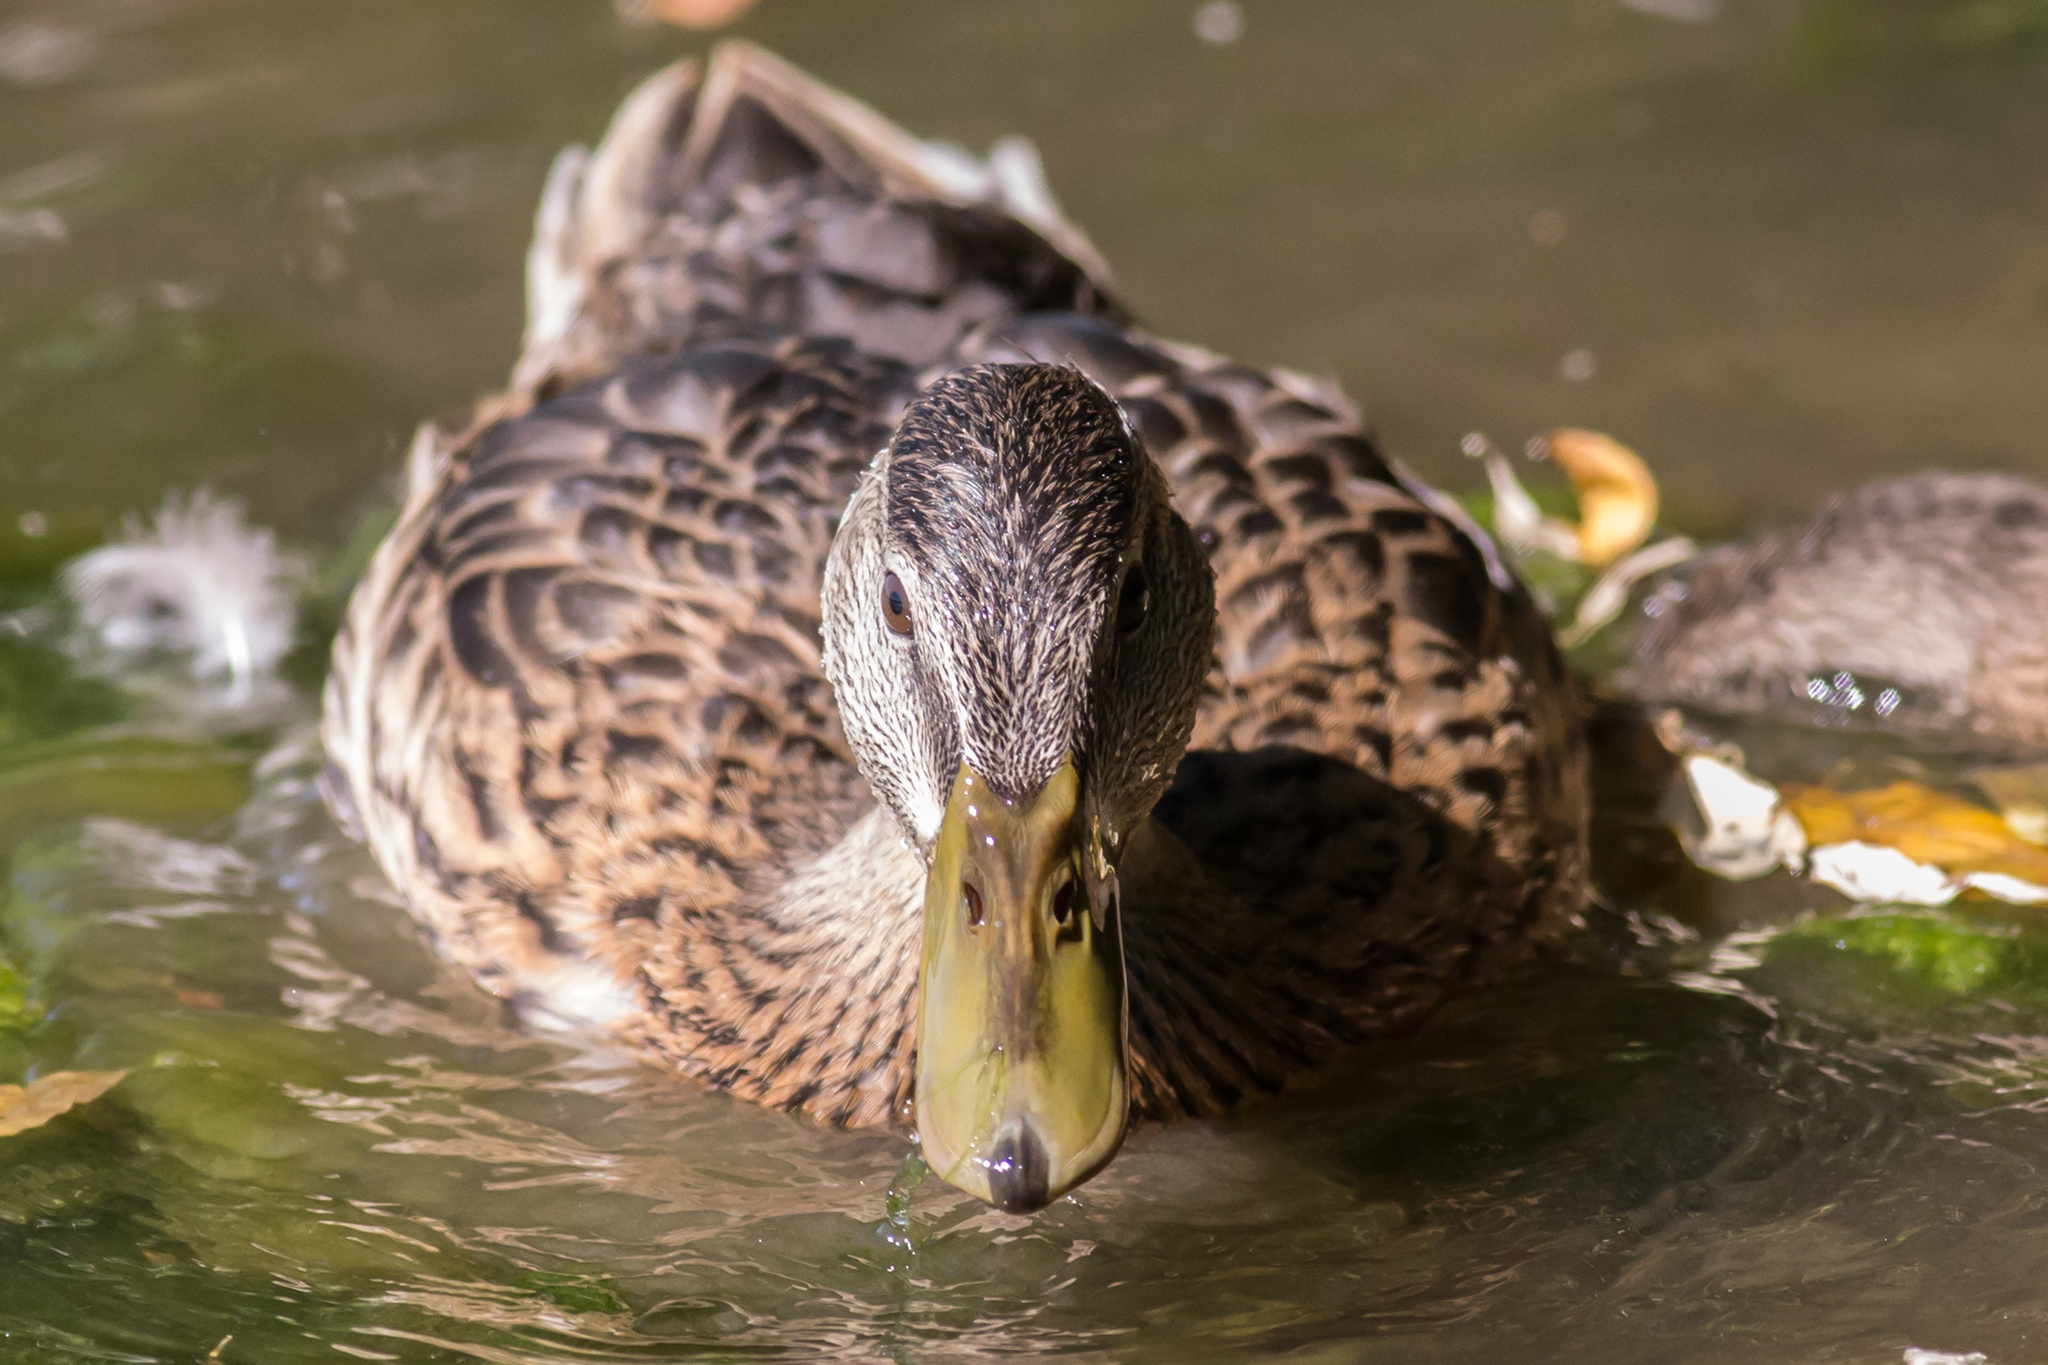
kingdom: Animalia
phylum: Chordata
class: Aves
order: Anseriformes
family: Anatidae
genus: Anas
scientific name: Anas platyrhynchos
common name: Mallard
